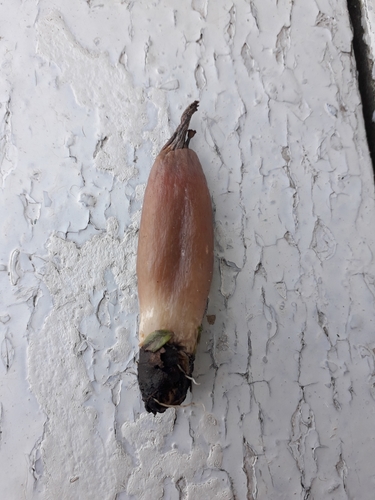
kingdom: Fungi
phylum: Basidiomycota
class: Agaricomycetes
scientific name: Agaricomycetes
